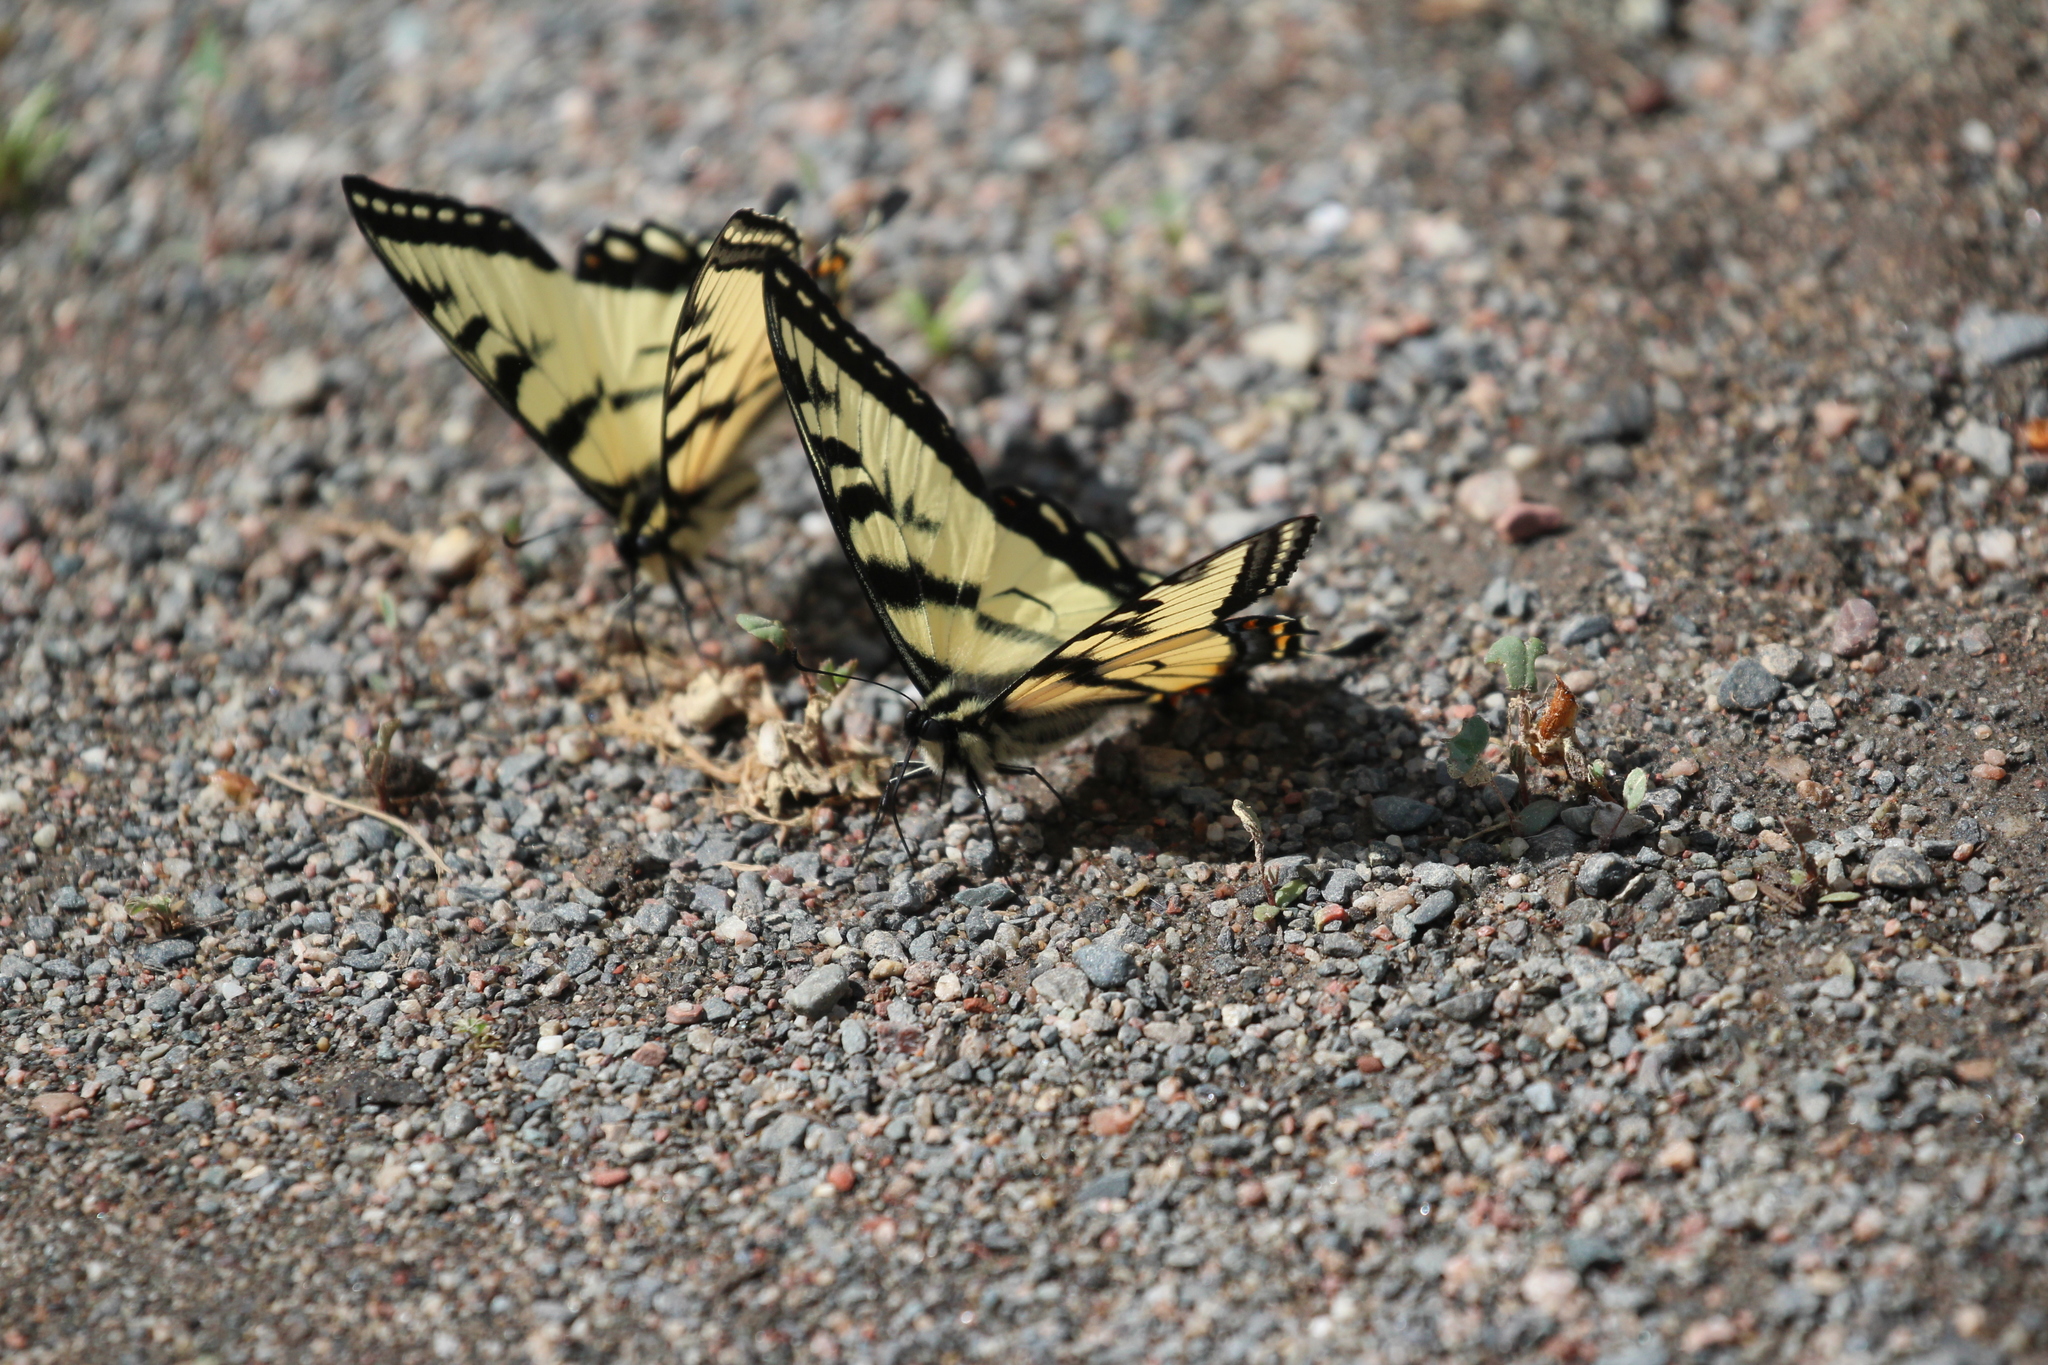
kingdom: Animalia
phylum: Arthropoda
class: Insecta
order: Lepidoptera
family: Papilionidae
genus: Papilio
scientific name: Papilio canadensis
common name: Canadian tiger swallowtail
